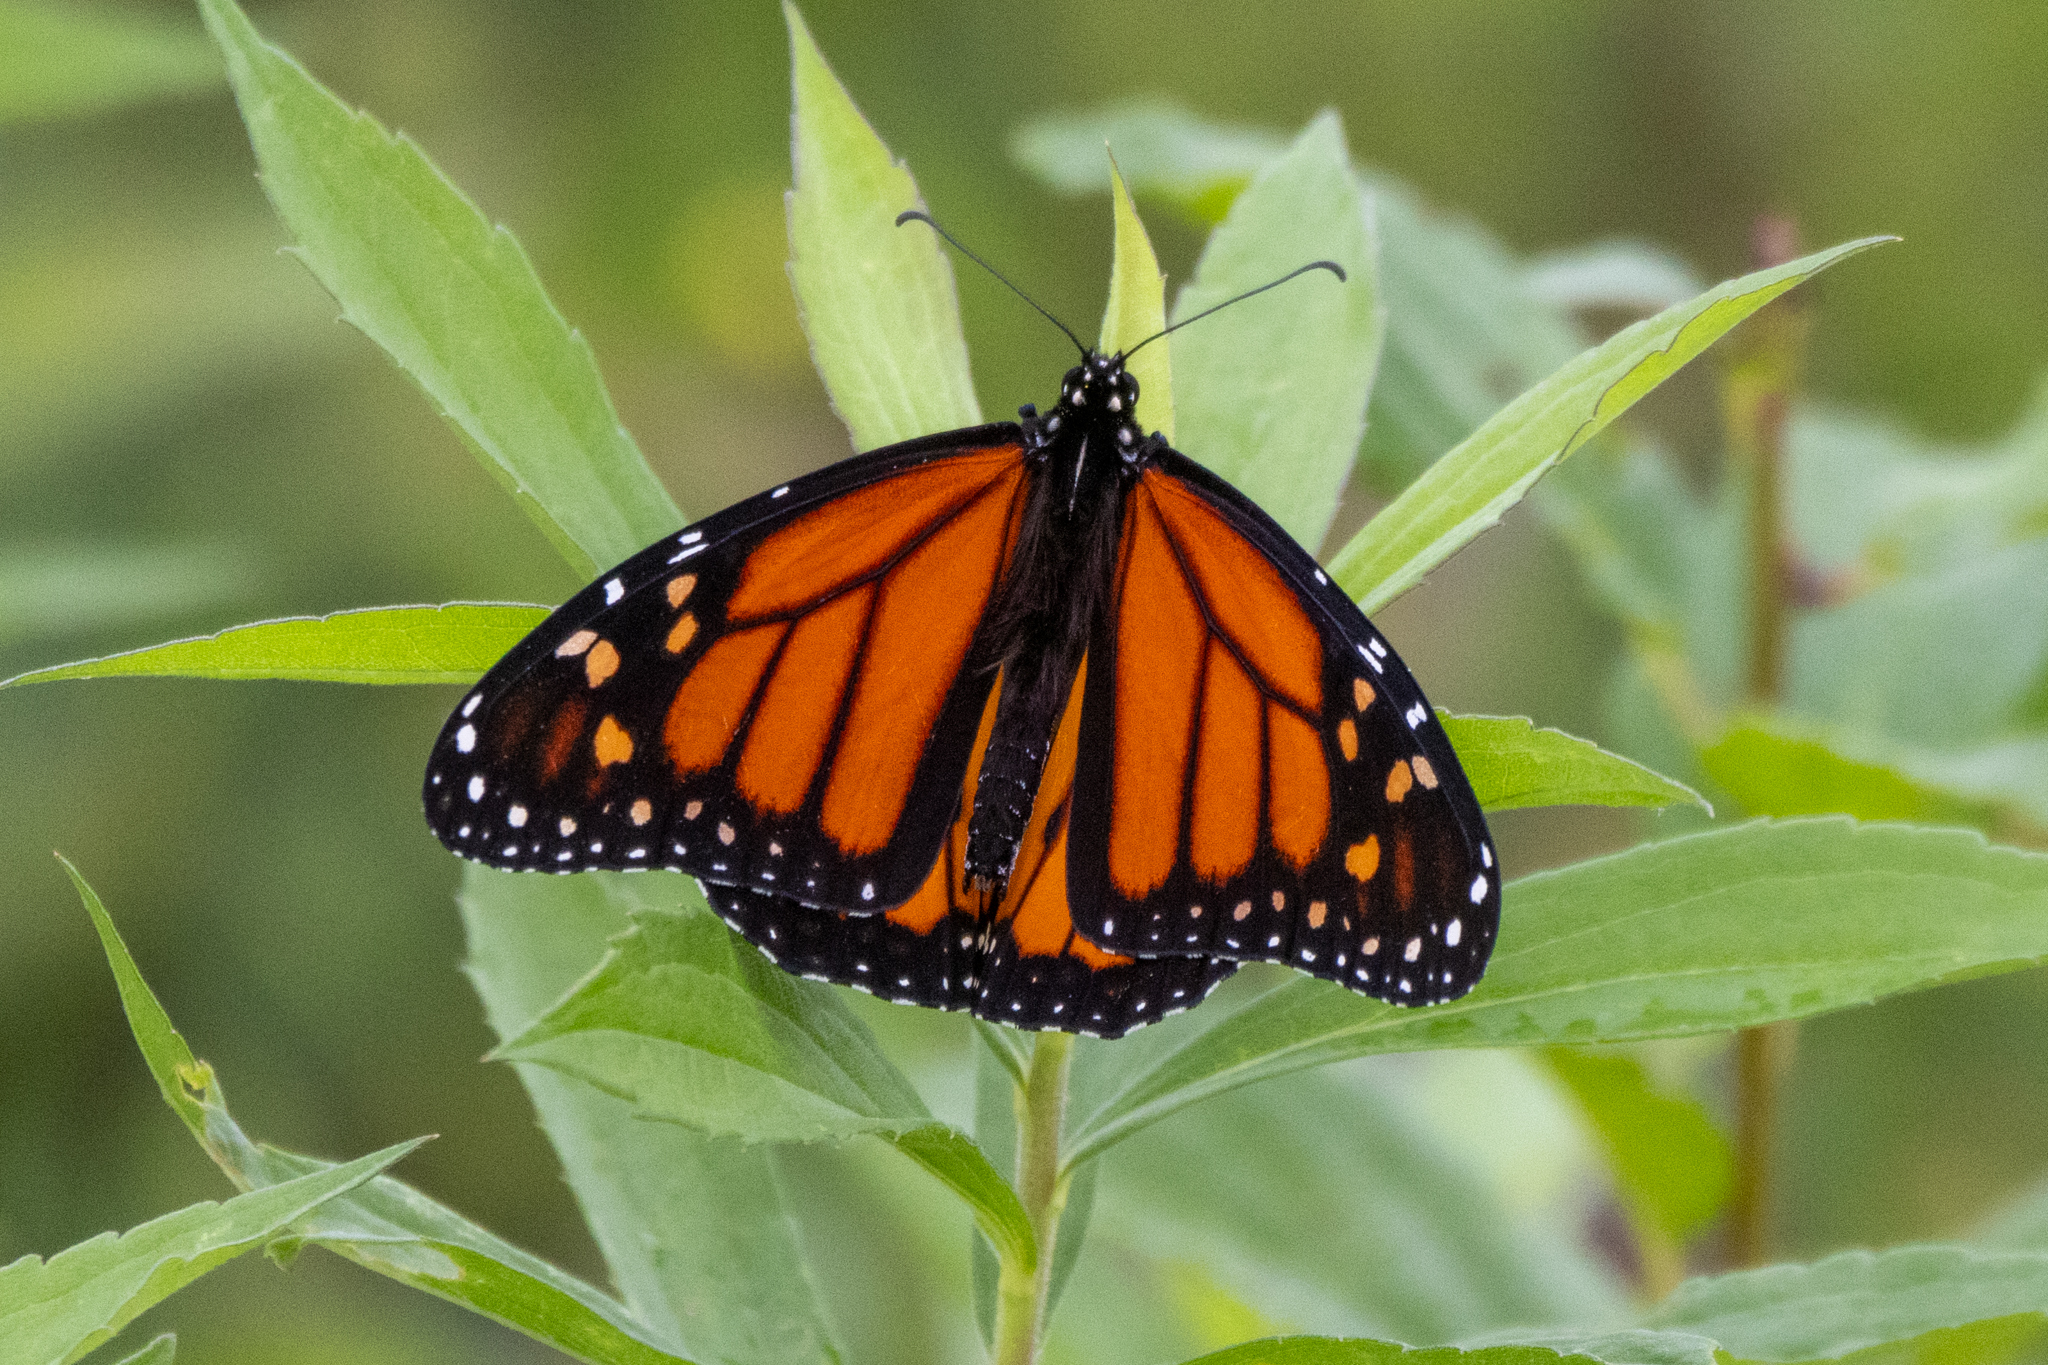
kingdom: Animalia
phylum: Arthropoda
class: Insecta
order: Lepidoptera
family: Nymphalidae
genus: Danaus
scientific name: Danaus plexippus
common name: Monarch
